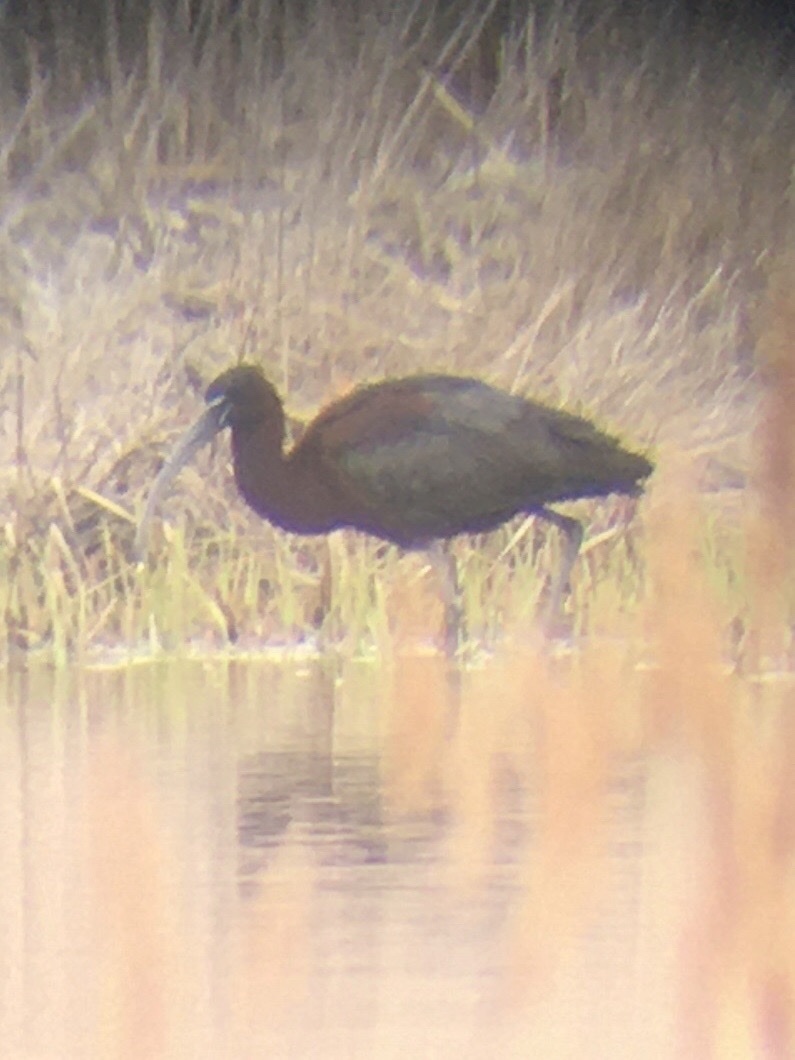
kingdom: Animalia
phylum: Chordata
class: Aves
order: Pelecaniformes
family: Threskiornithidae
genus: Plegadis
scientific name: Plegadis falcinellus
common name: Glossy ibis
